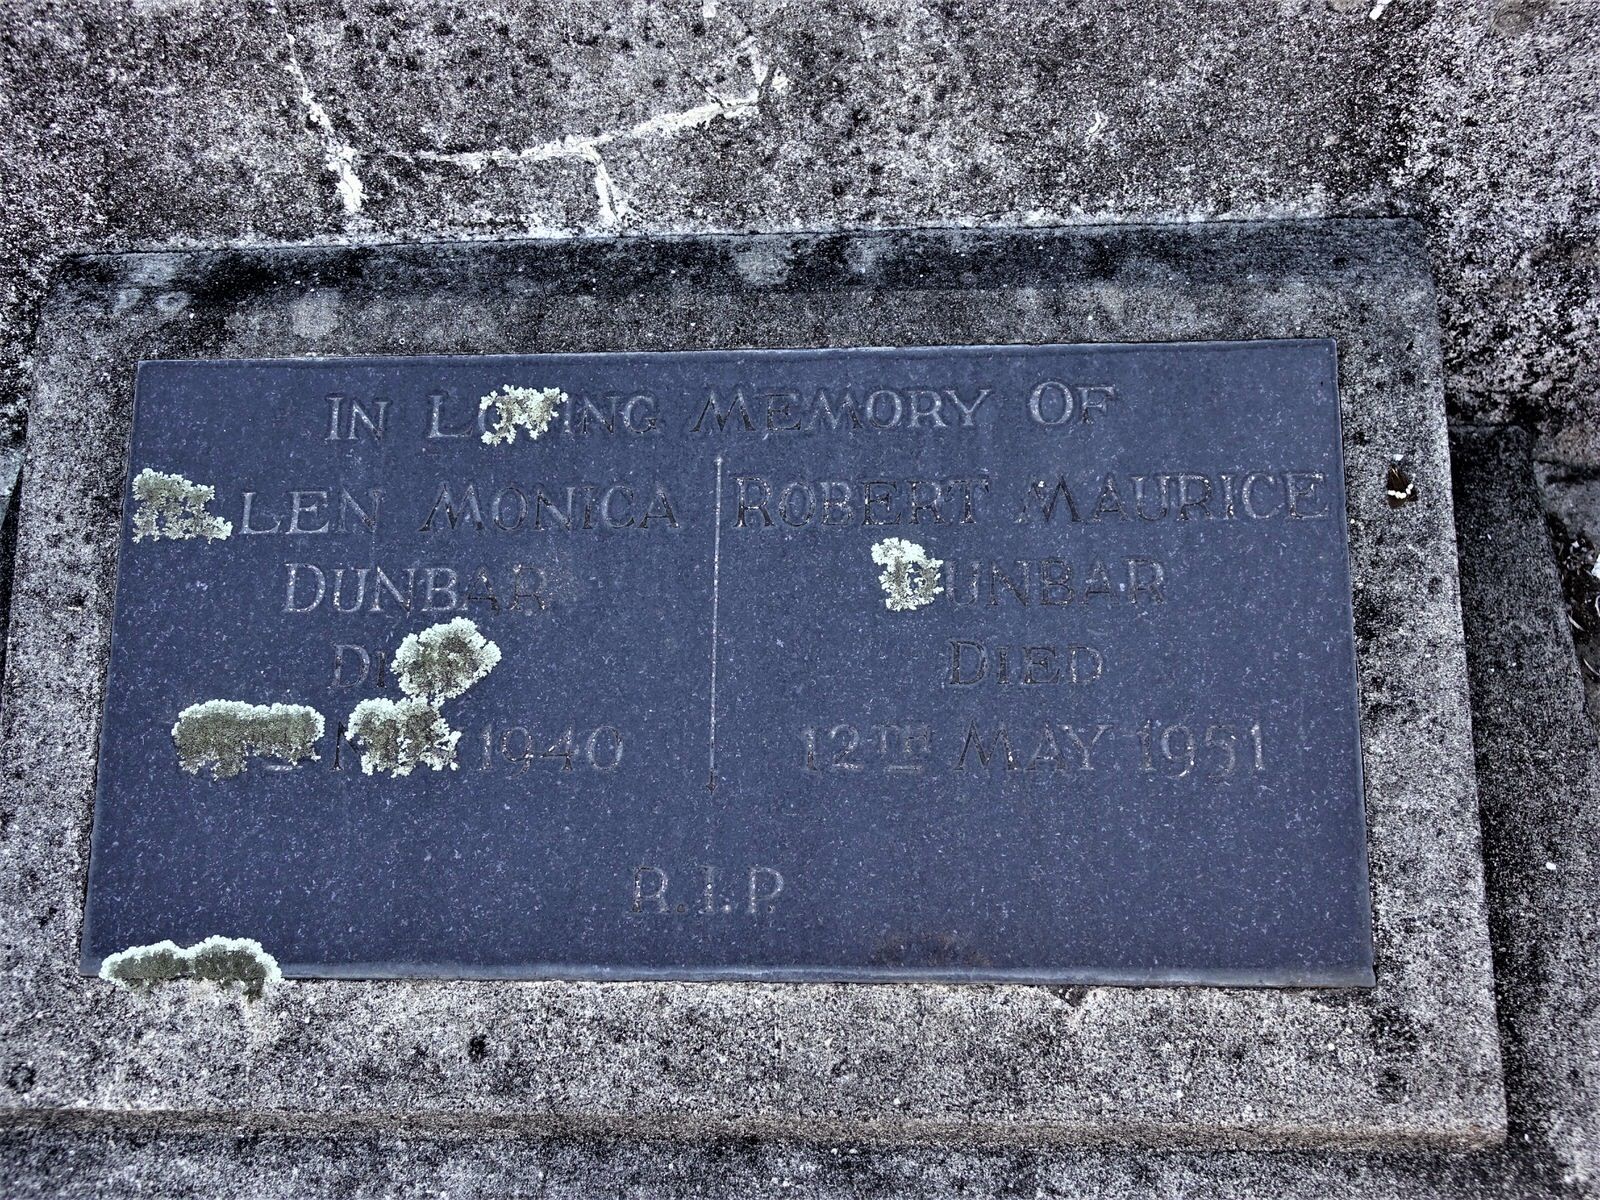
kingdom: Animalia
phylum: Arthropoda
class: Insecta
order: Lepidoptera
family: Erebidae
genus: Nyctemera
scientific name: Nyctemera amicus
